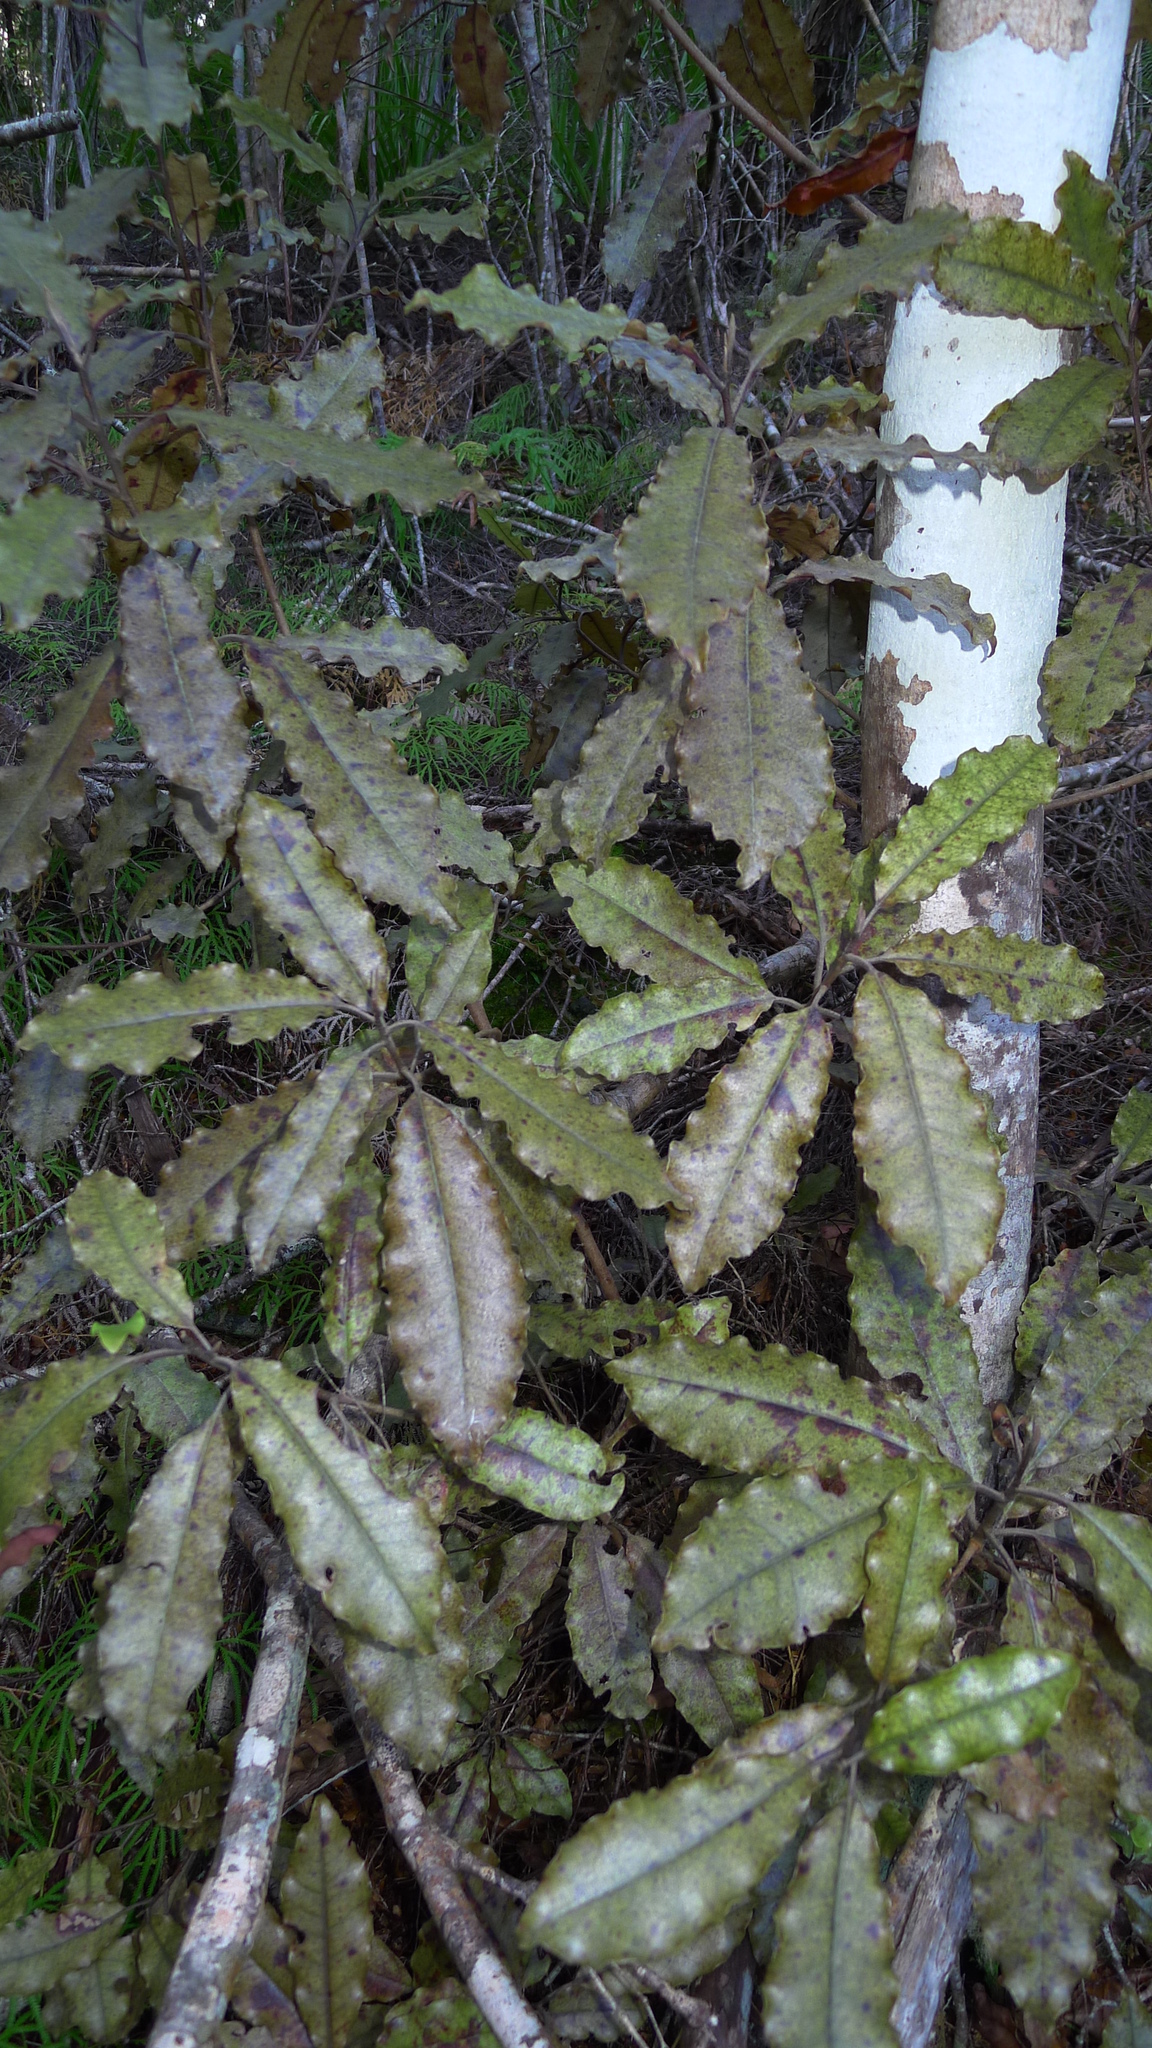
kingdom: Plantae
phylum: Tracheophyta
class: Magnoliopsida
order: Paracryphiales
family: Paracryphiaceae
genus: Quintinia
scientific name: Quintinia serrata
